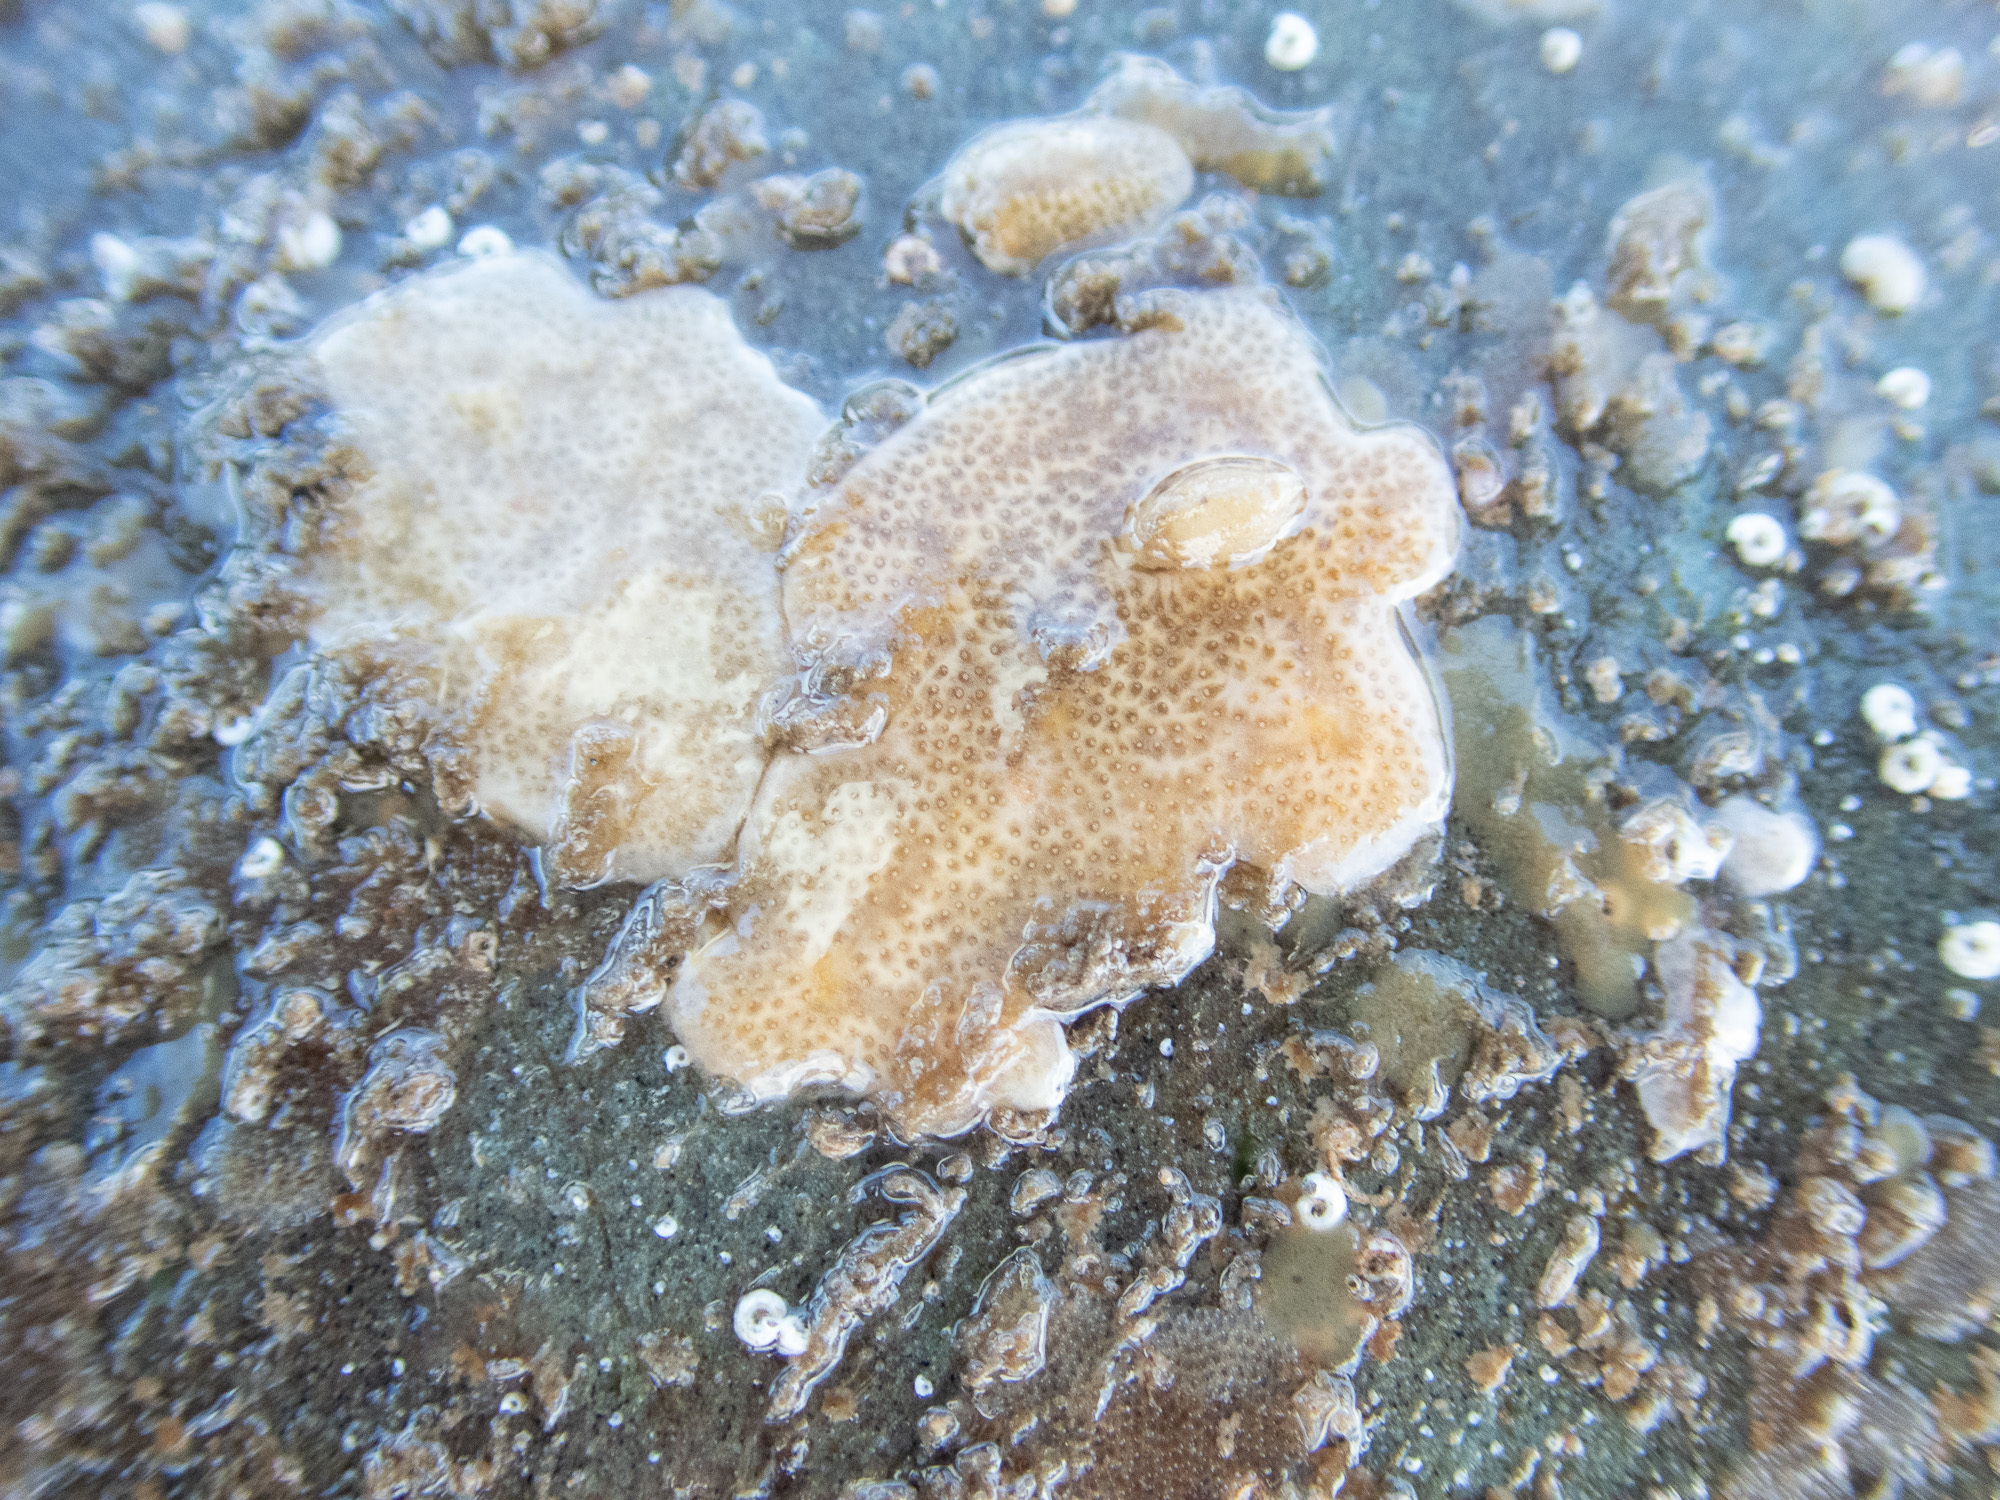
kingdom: Animalia
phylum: Chordata
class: Ascidiacea
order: Aplousobranchia
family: Didemnidae
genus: Didemnum
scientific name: Didemnum maculosum
